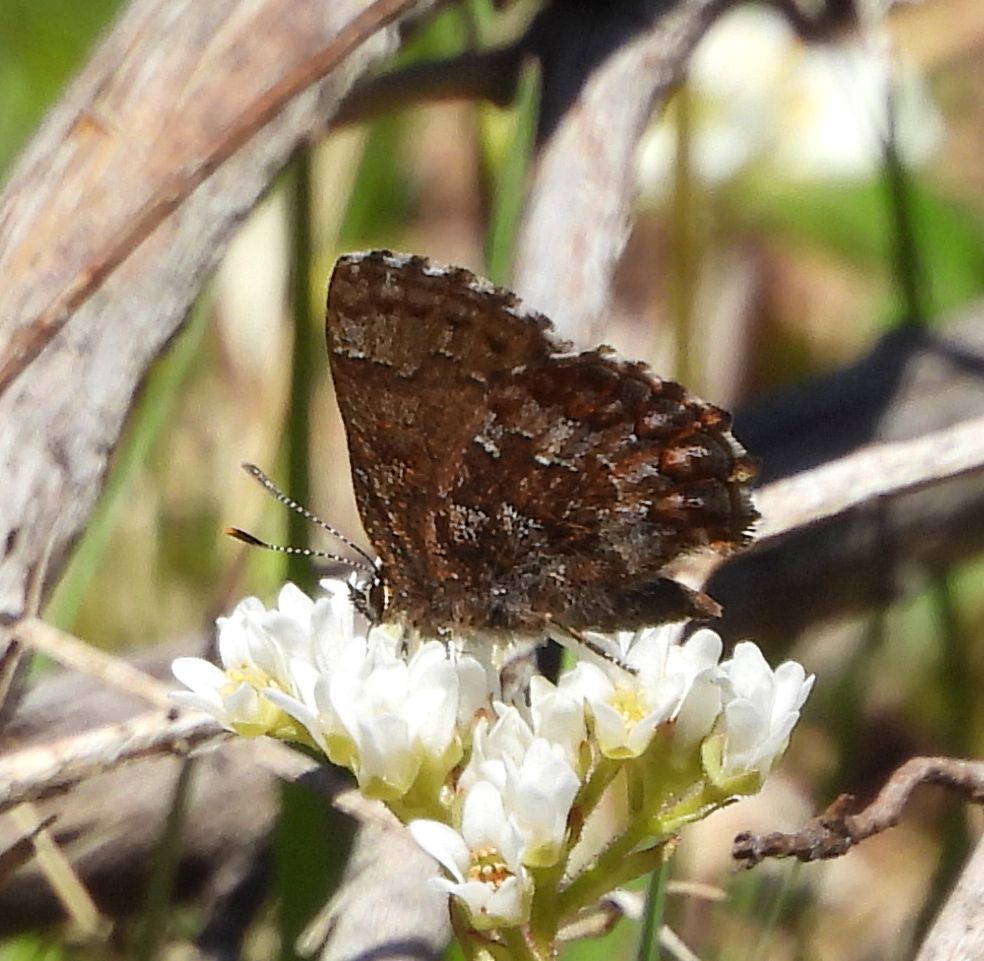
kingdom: Animalia
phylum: Arthropoda
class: Insecta
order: Lepidoptera
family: Lycaenidae
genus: Incisalia
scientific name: Incisalia niphon
